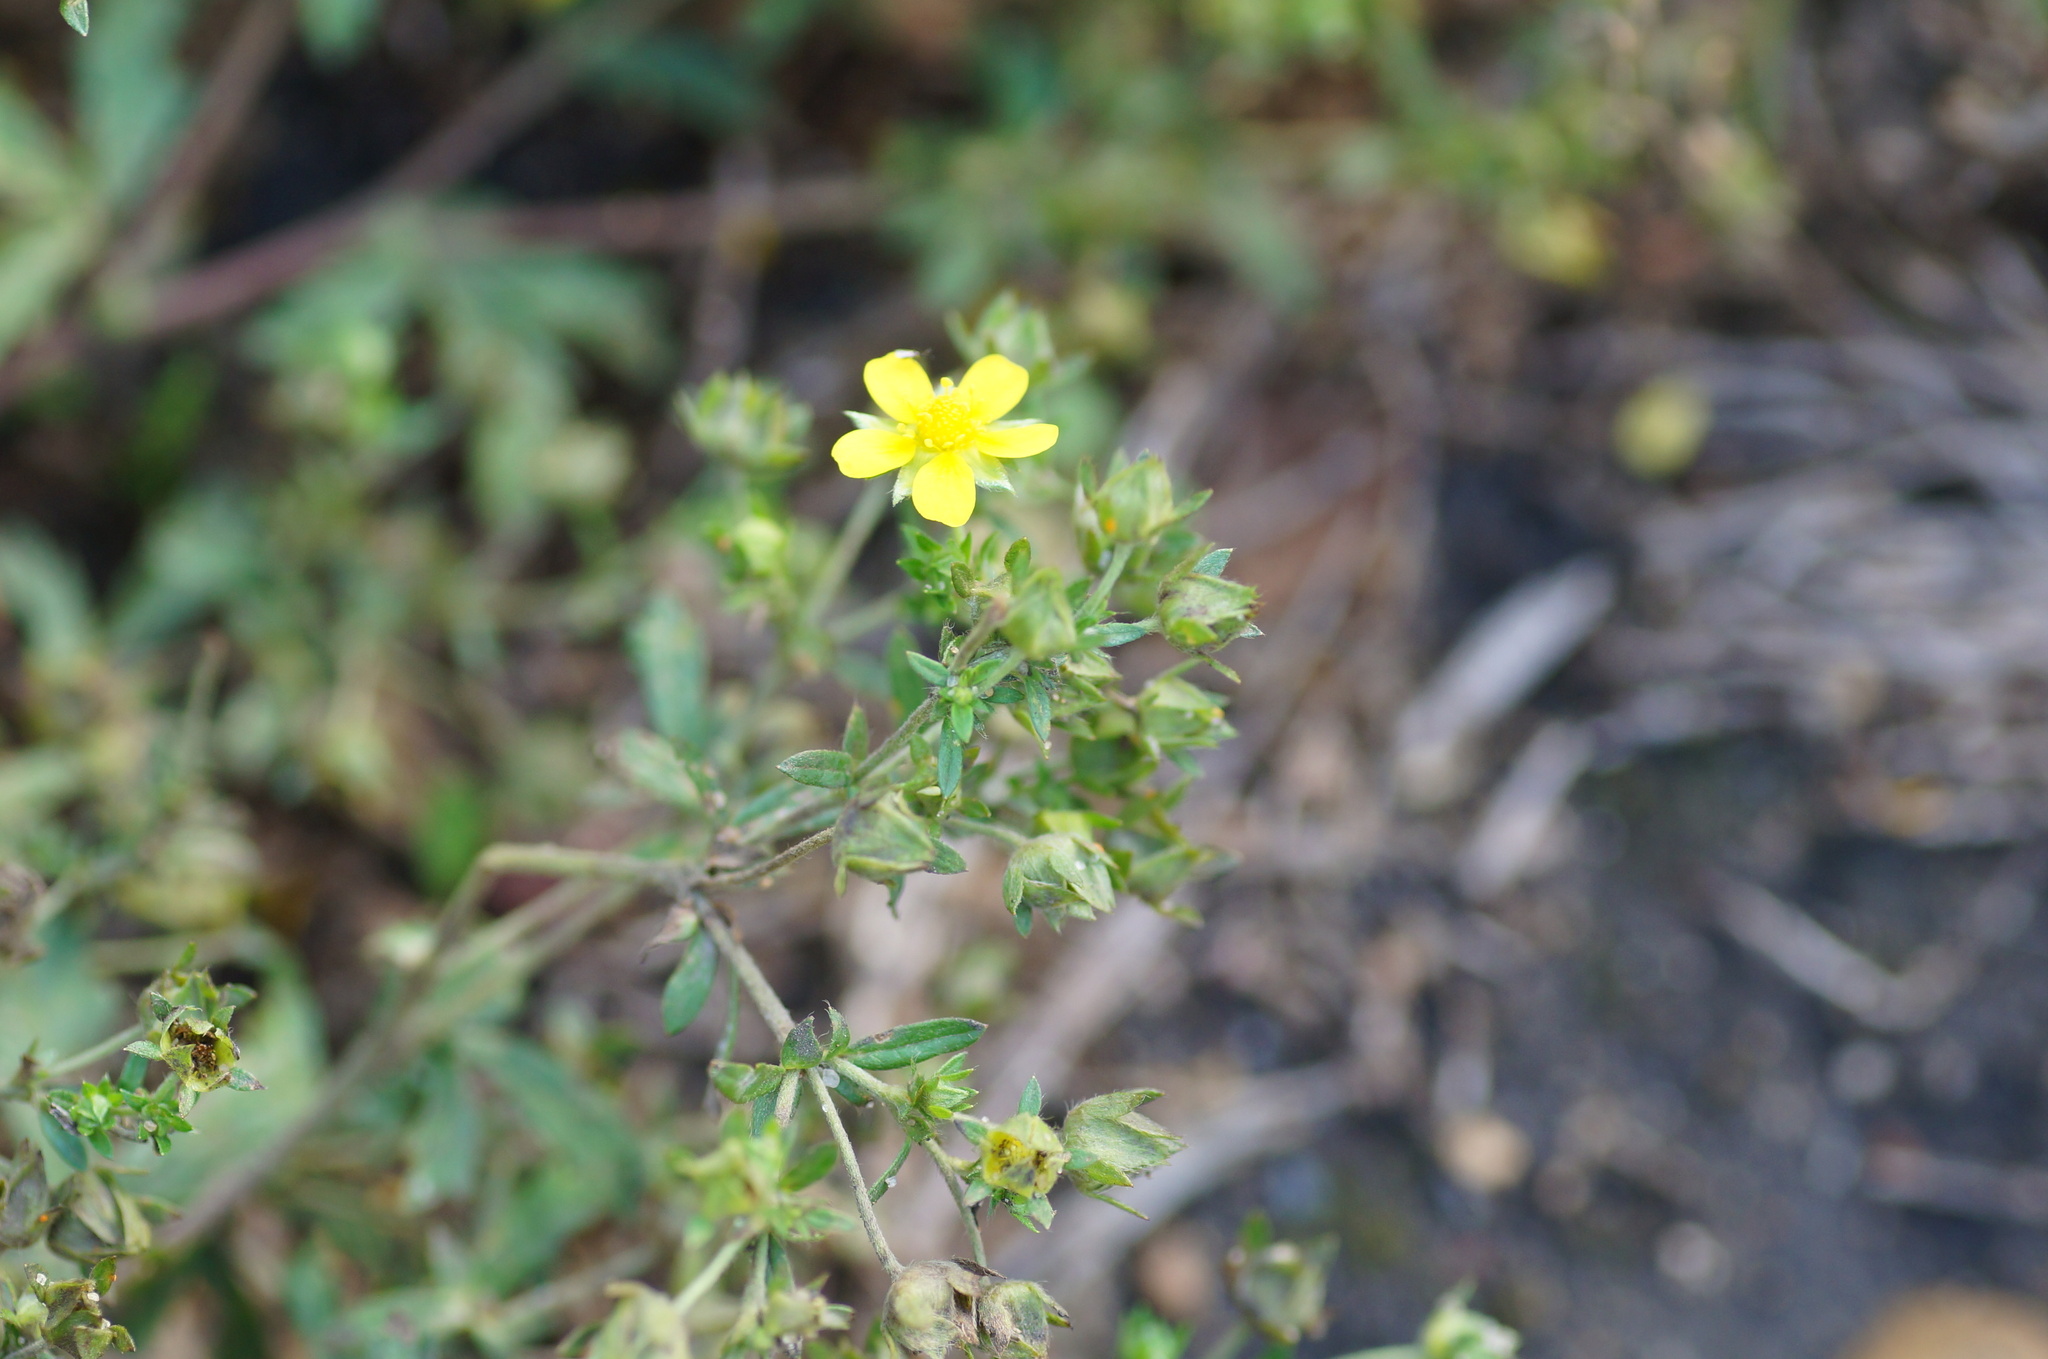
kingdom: Plantae
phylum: Tracheophyta
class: Magnoliopsida
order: Rosales
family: Rosaceae
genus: Potentilla
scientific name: Potentilla argentea
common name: Hoary cinquefoil
